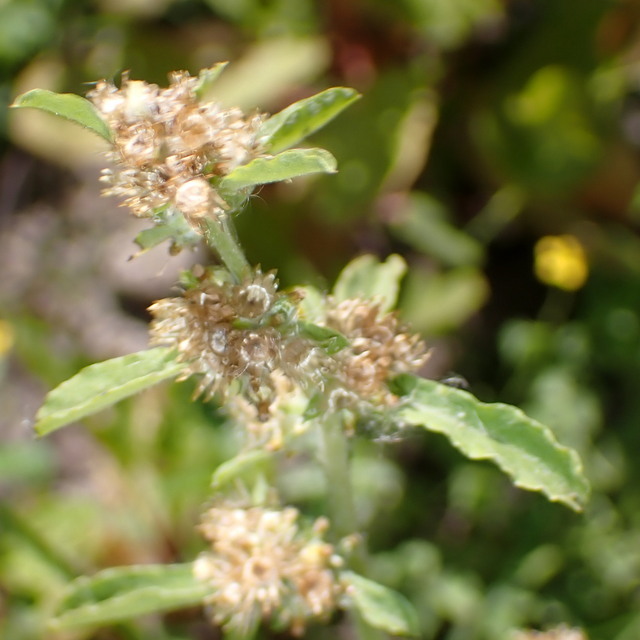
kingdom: Plantae
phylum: Tracheophyta
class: Magnoliopsida
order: Asterales
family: Asteraceae
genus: Gamochaeta
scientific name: Gamochaeta pensylvanica
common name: Pennsylvania everlasting
